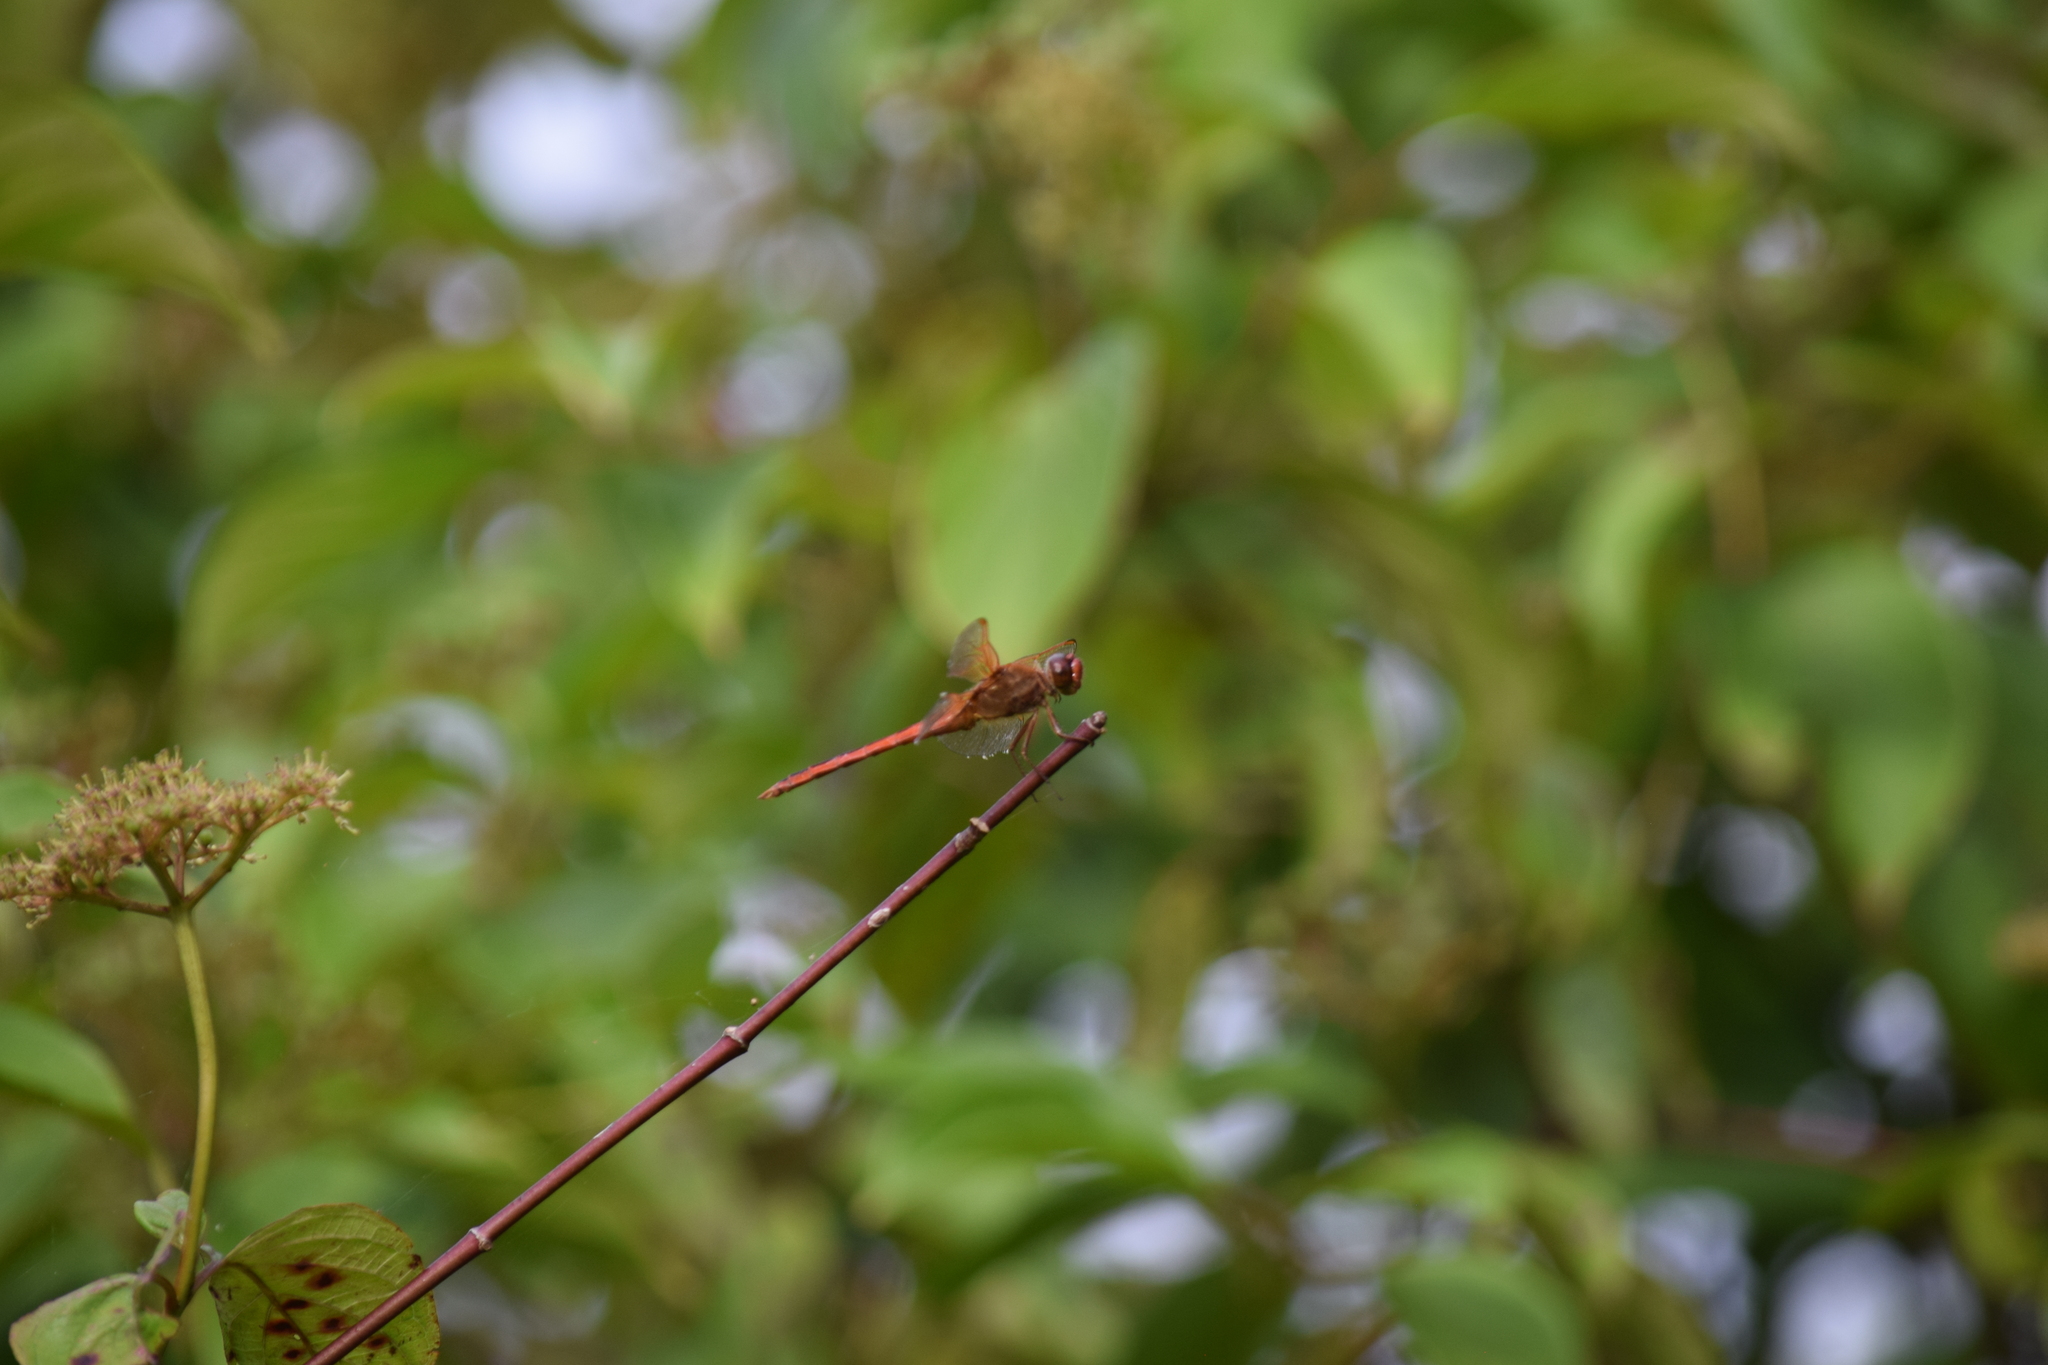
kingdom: Animalia
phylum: Arthropoda
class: Insecta
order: Odonata
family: Libellulidae
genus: Libellula
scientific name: Libellula needhami
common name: Needham's skimmer
